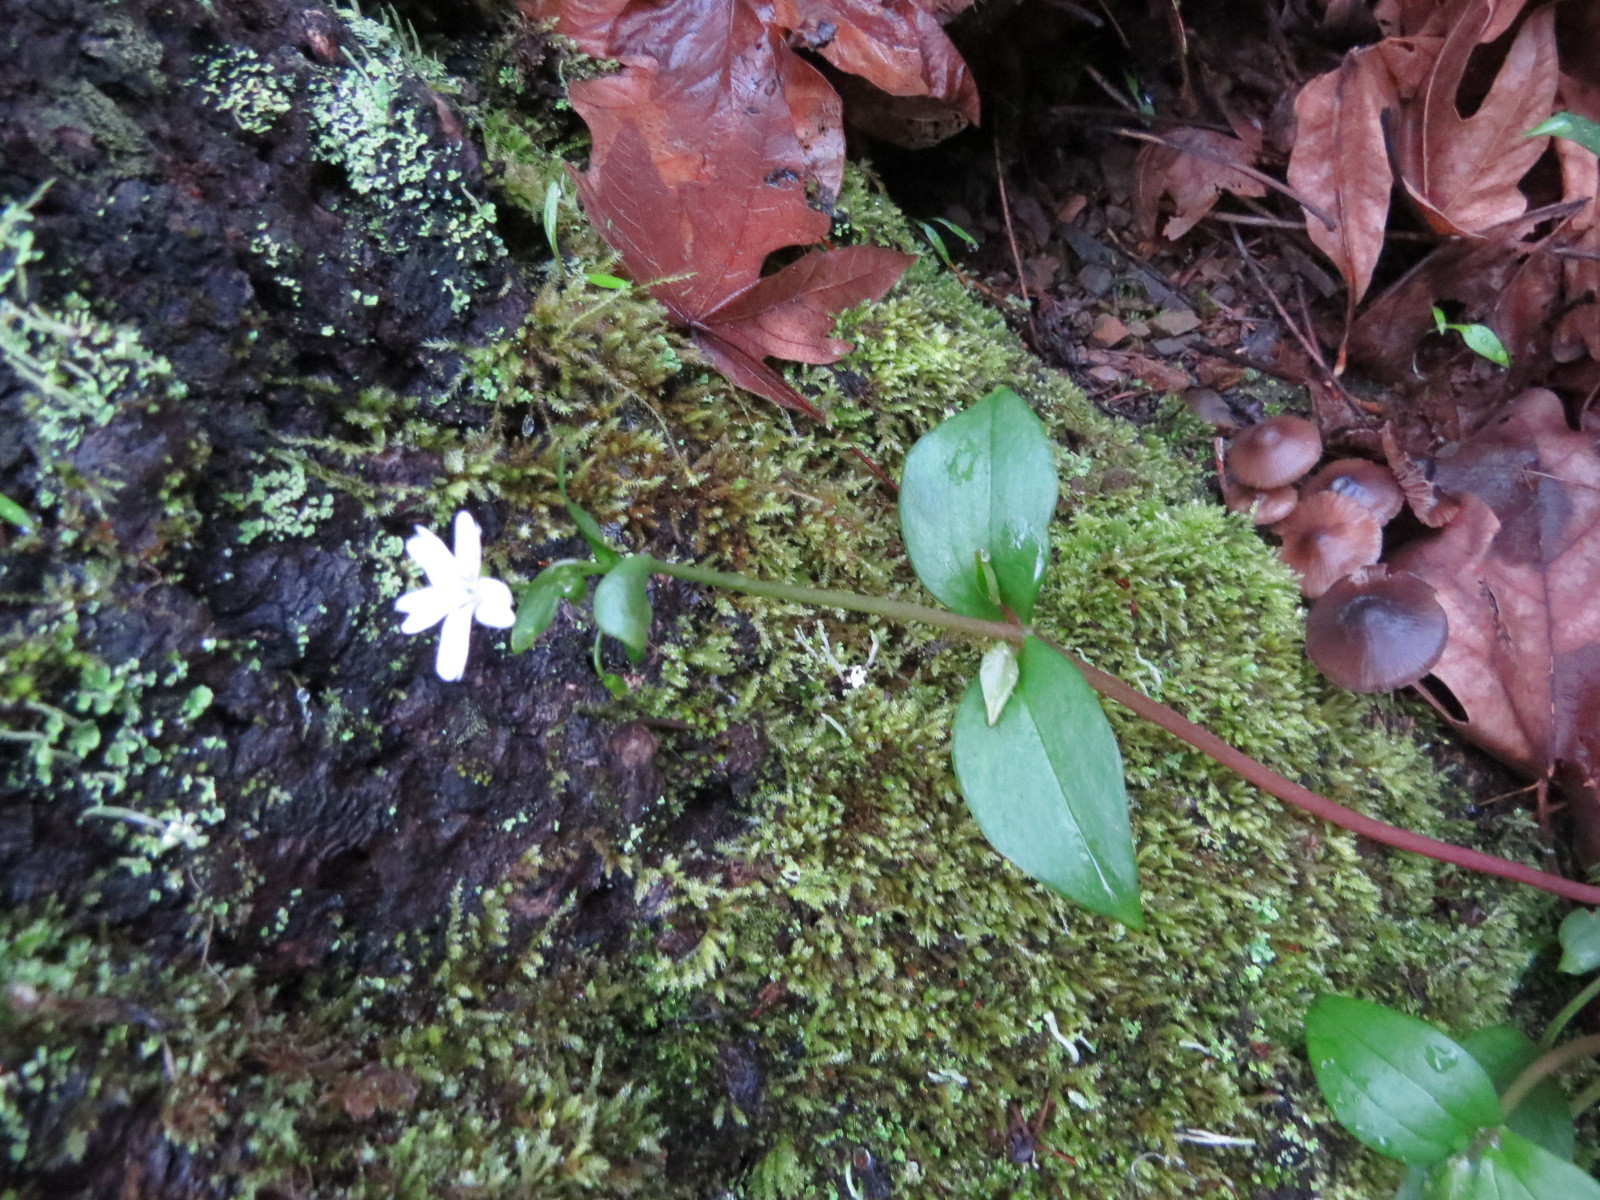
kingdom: Plantae
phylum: Tracheophyta
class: Magnoliopsida
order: Caryophyllales
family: Montiaceae
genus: Claytonia
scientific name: Claytonia sibirica
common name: Pink purslane
